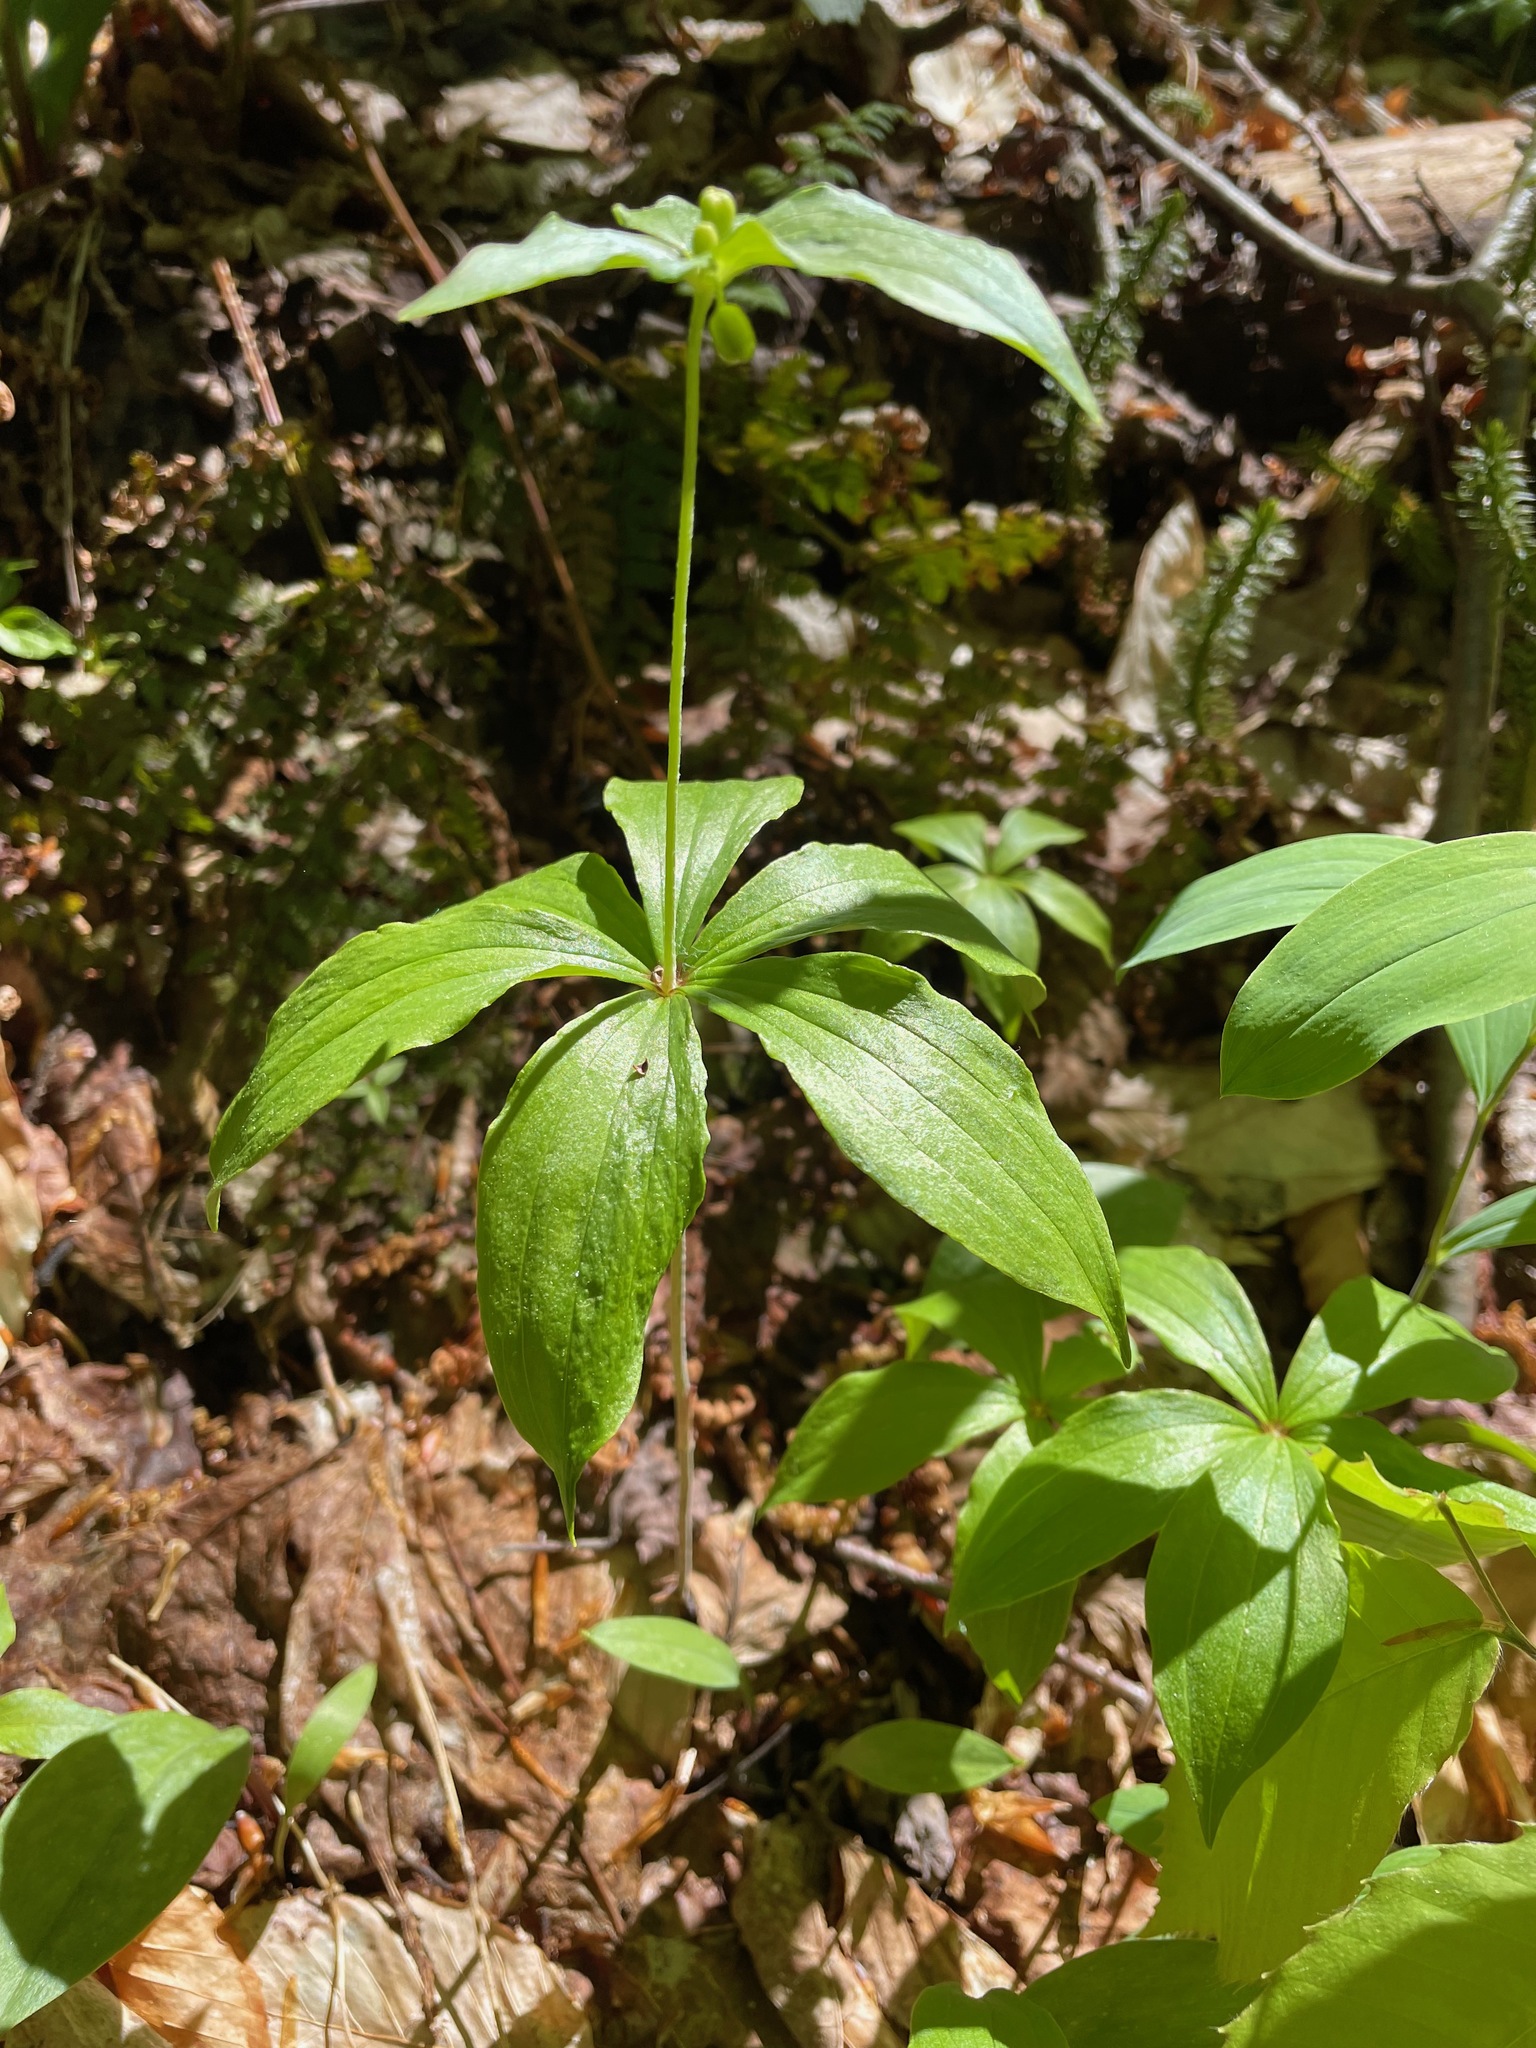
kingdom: Plantae
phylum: Tracheophyta
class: Liliopsida
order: Liliales
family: Liliaceae
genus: Medeola
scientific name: Medeola virginiana
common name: Indian cucumber-root
